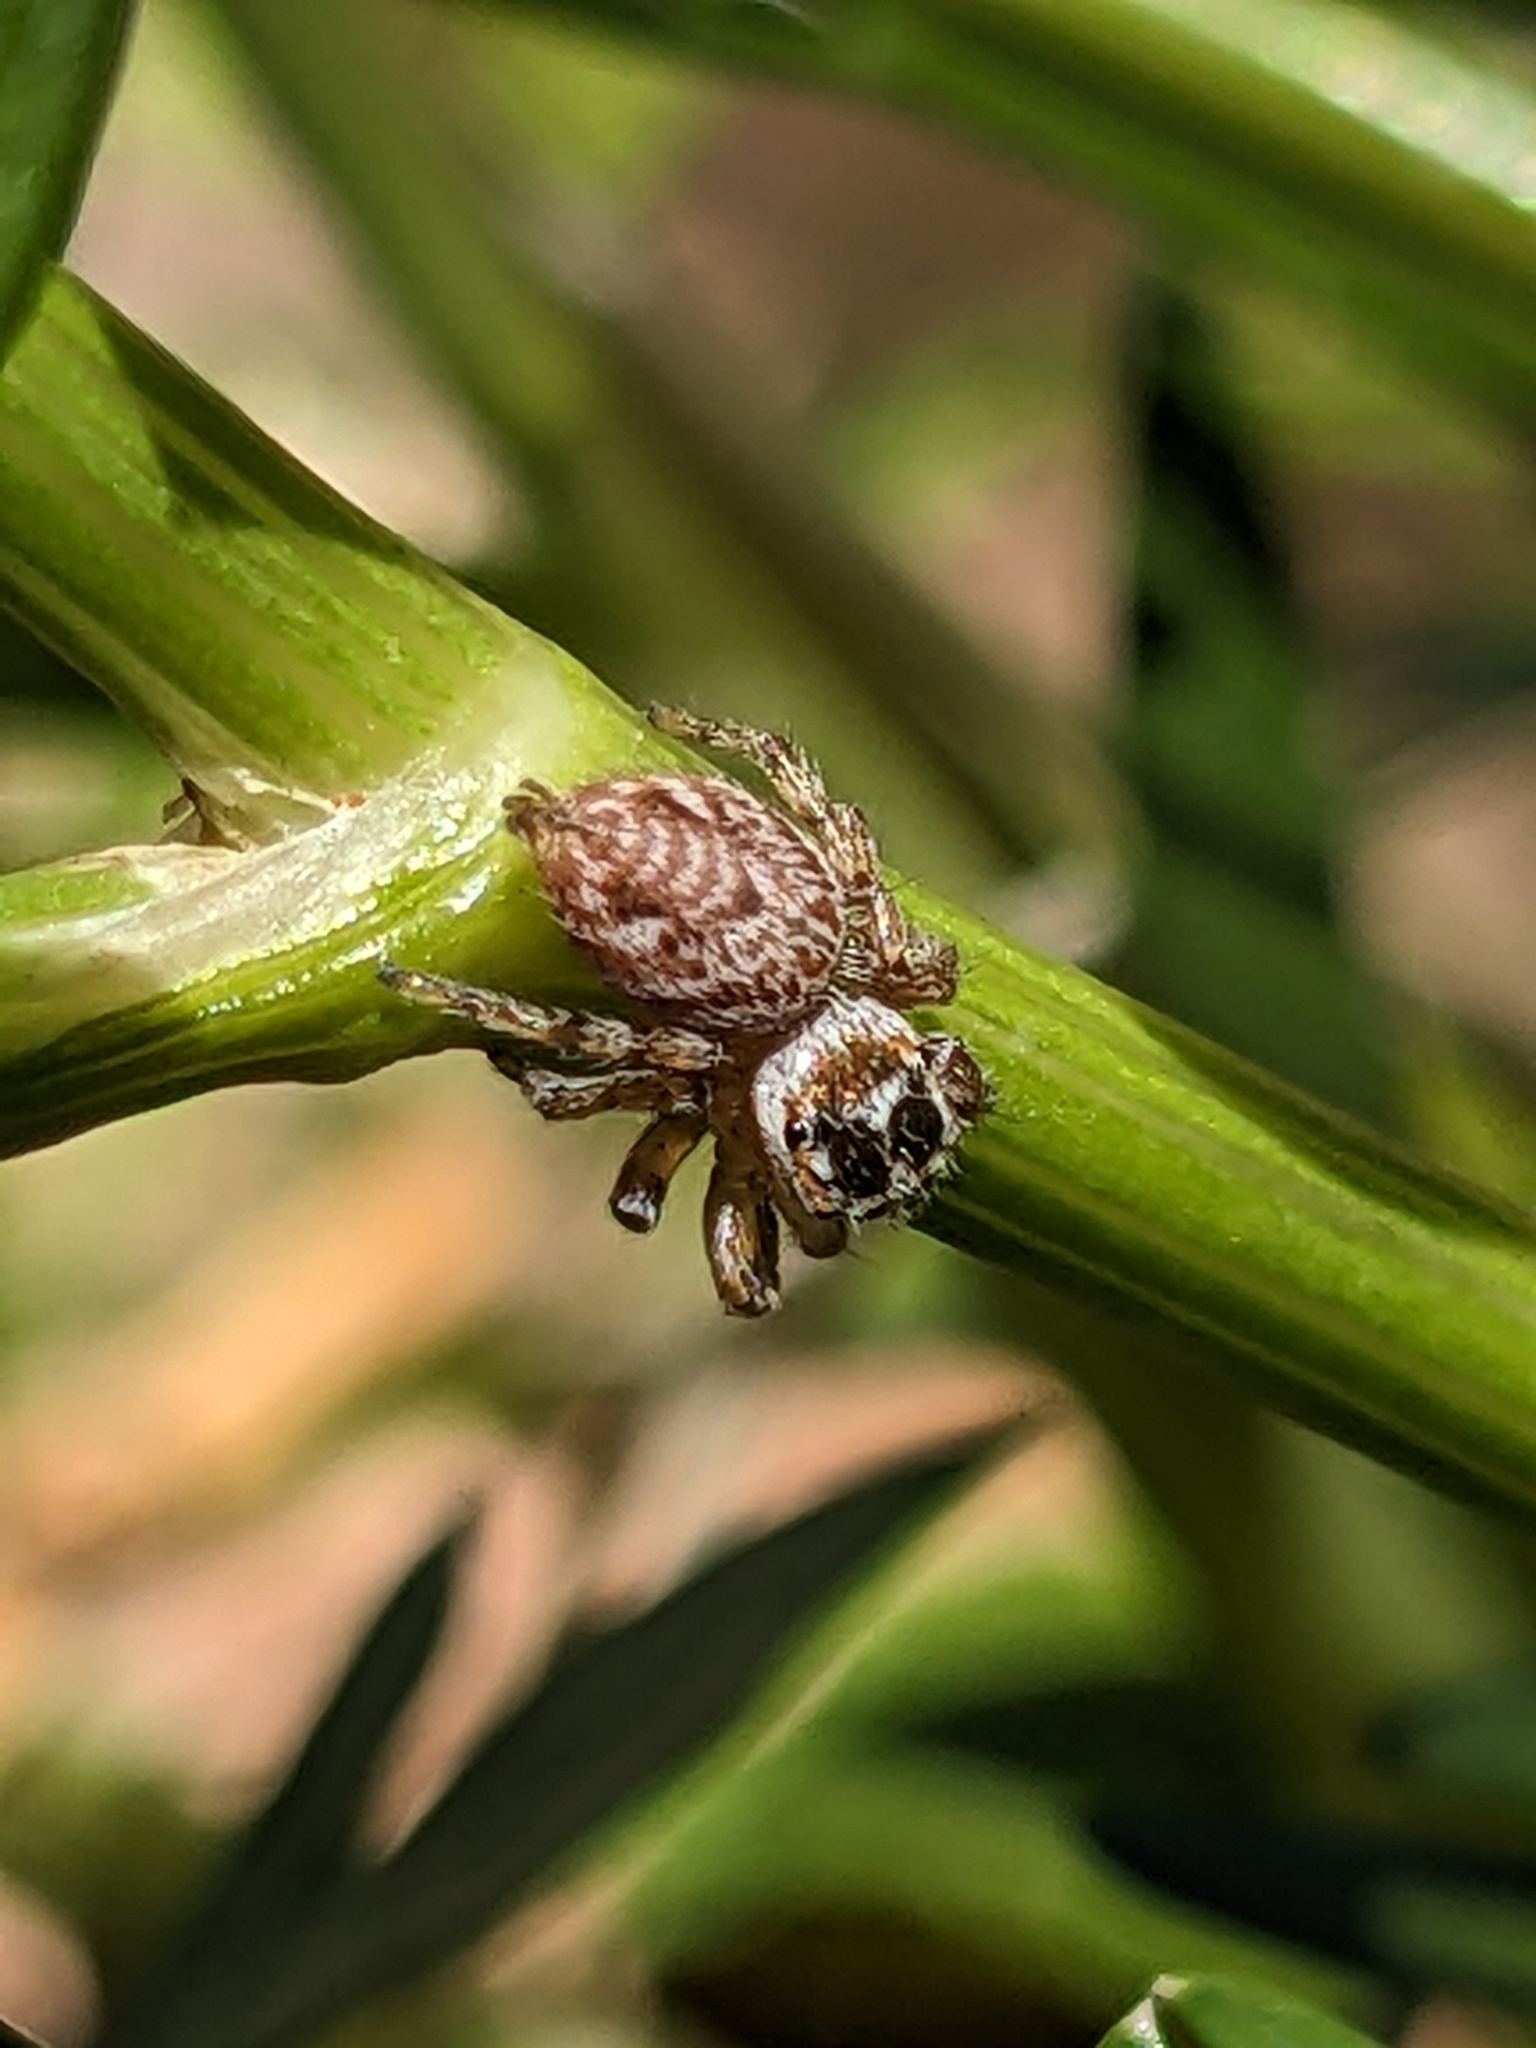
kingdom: Animalia
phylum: Arthropoda
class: Arachnida
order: Araneae
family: Salticidae
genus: Philaeus
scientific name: Philaeus chrysops
